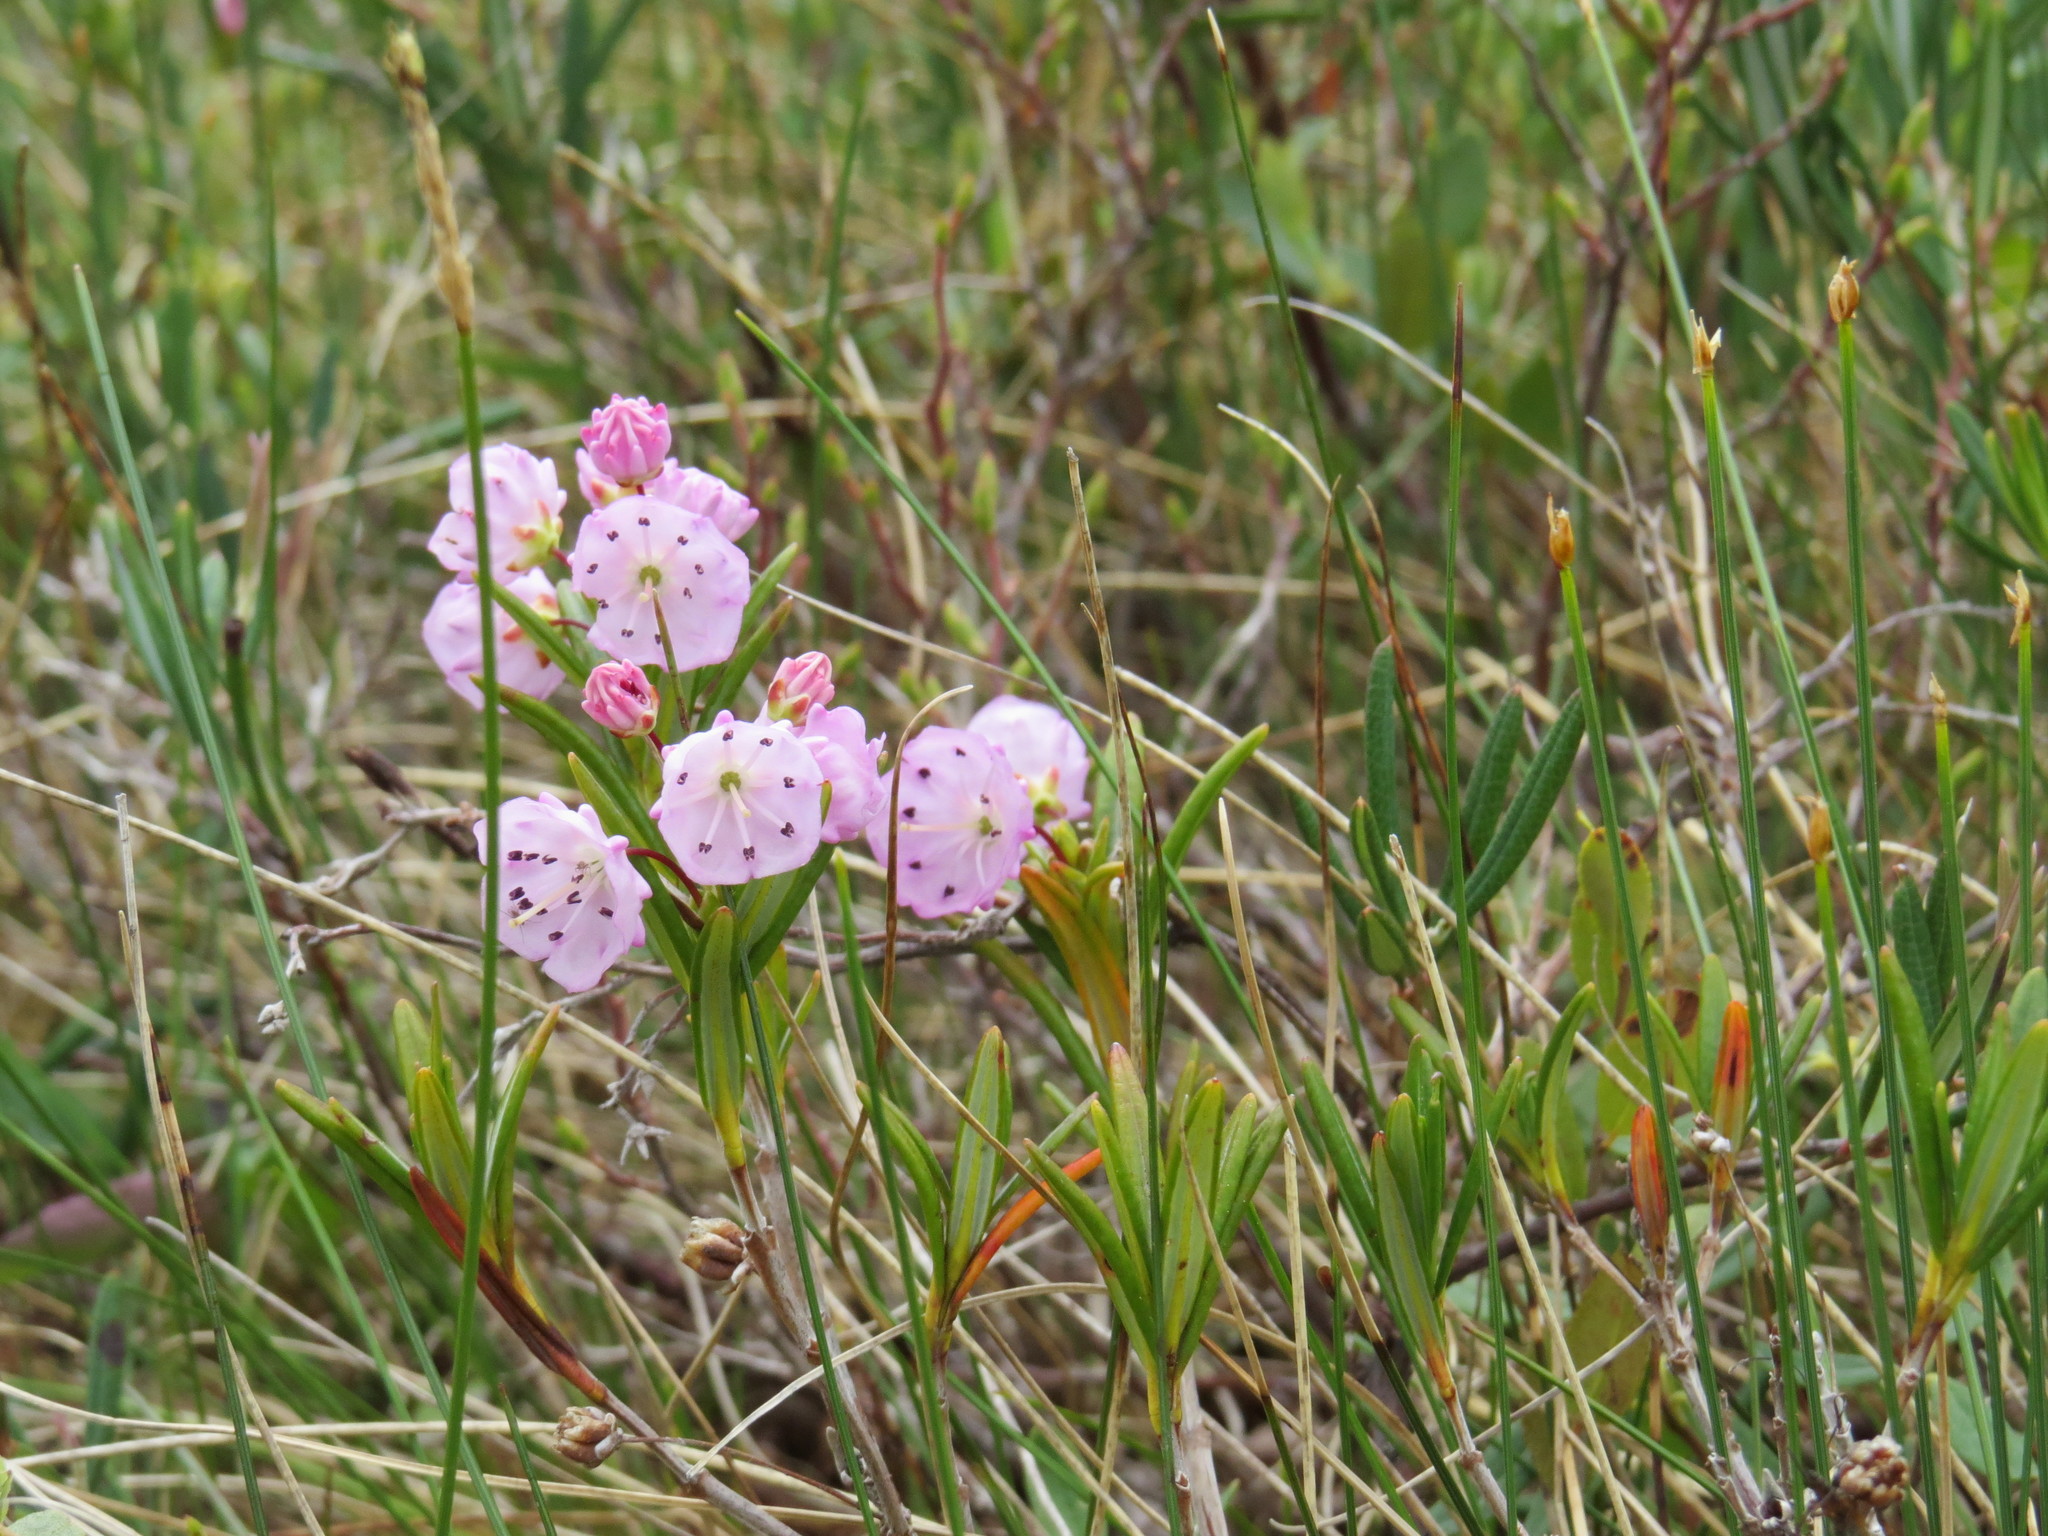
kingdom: Plantae
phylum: Tracheophyta
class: Magnoliopsida
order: Ericales
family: Ericaceae
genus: Kalmia
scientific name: Kalmia polifolia
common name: Bog-laurel
